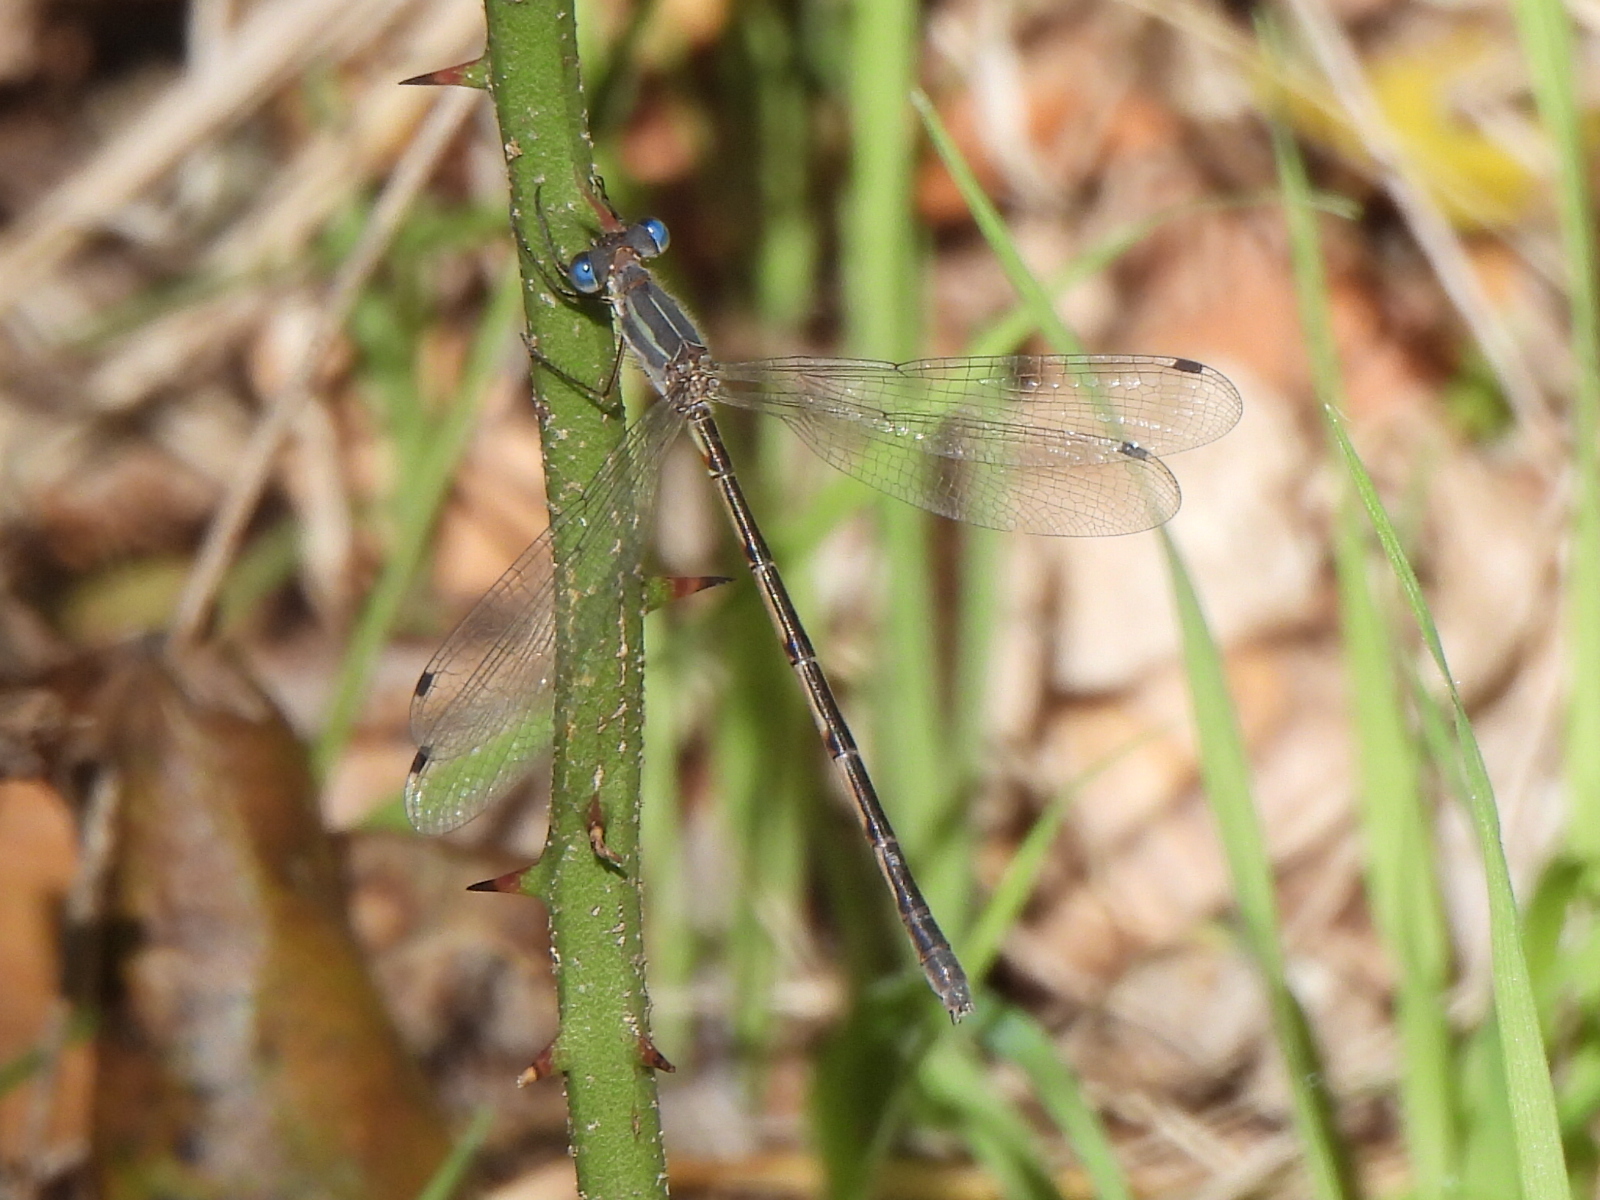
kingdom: Animalia
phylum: Arthropoda
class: Insecta
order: Odonata
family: Lestidae
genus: Lestes
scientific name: Lestes australis
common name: Southern spreadwing
